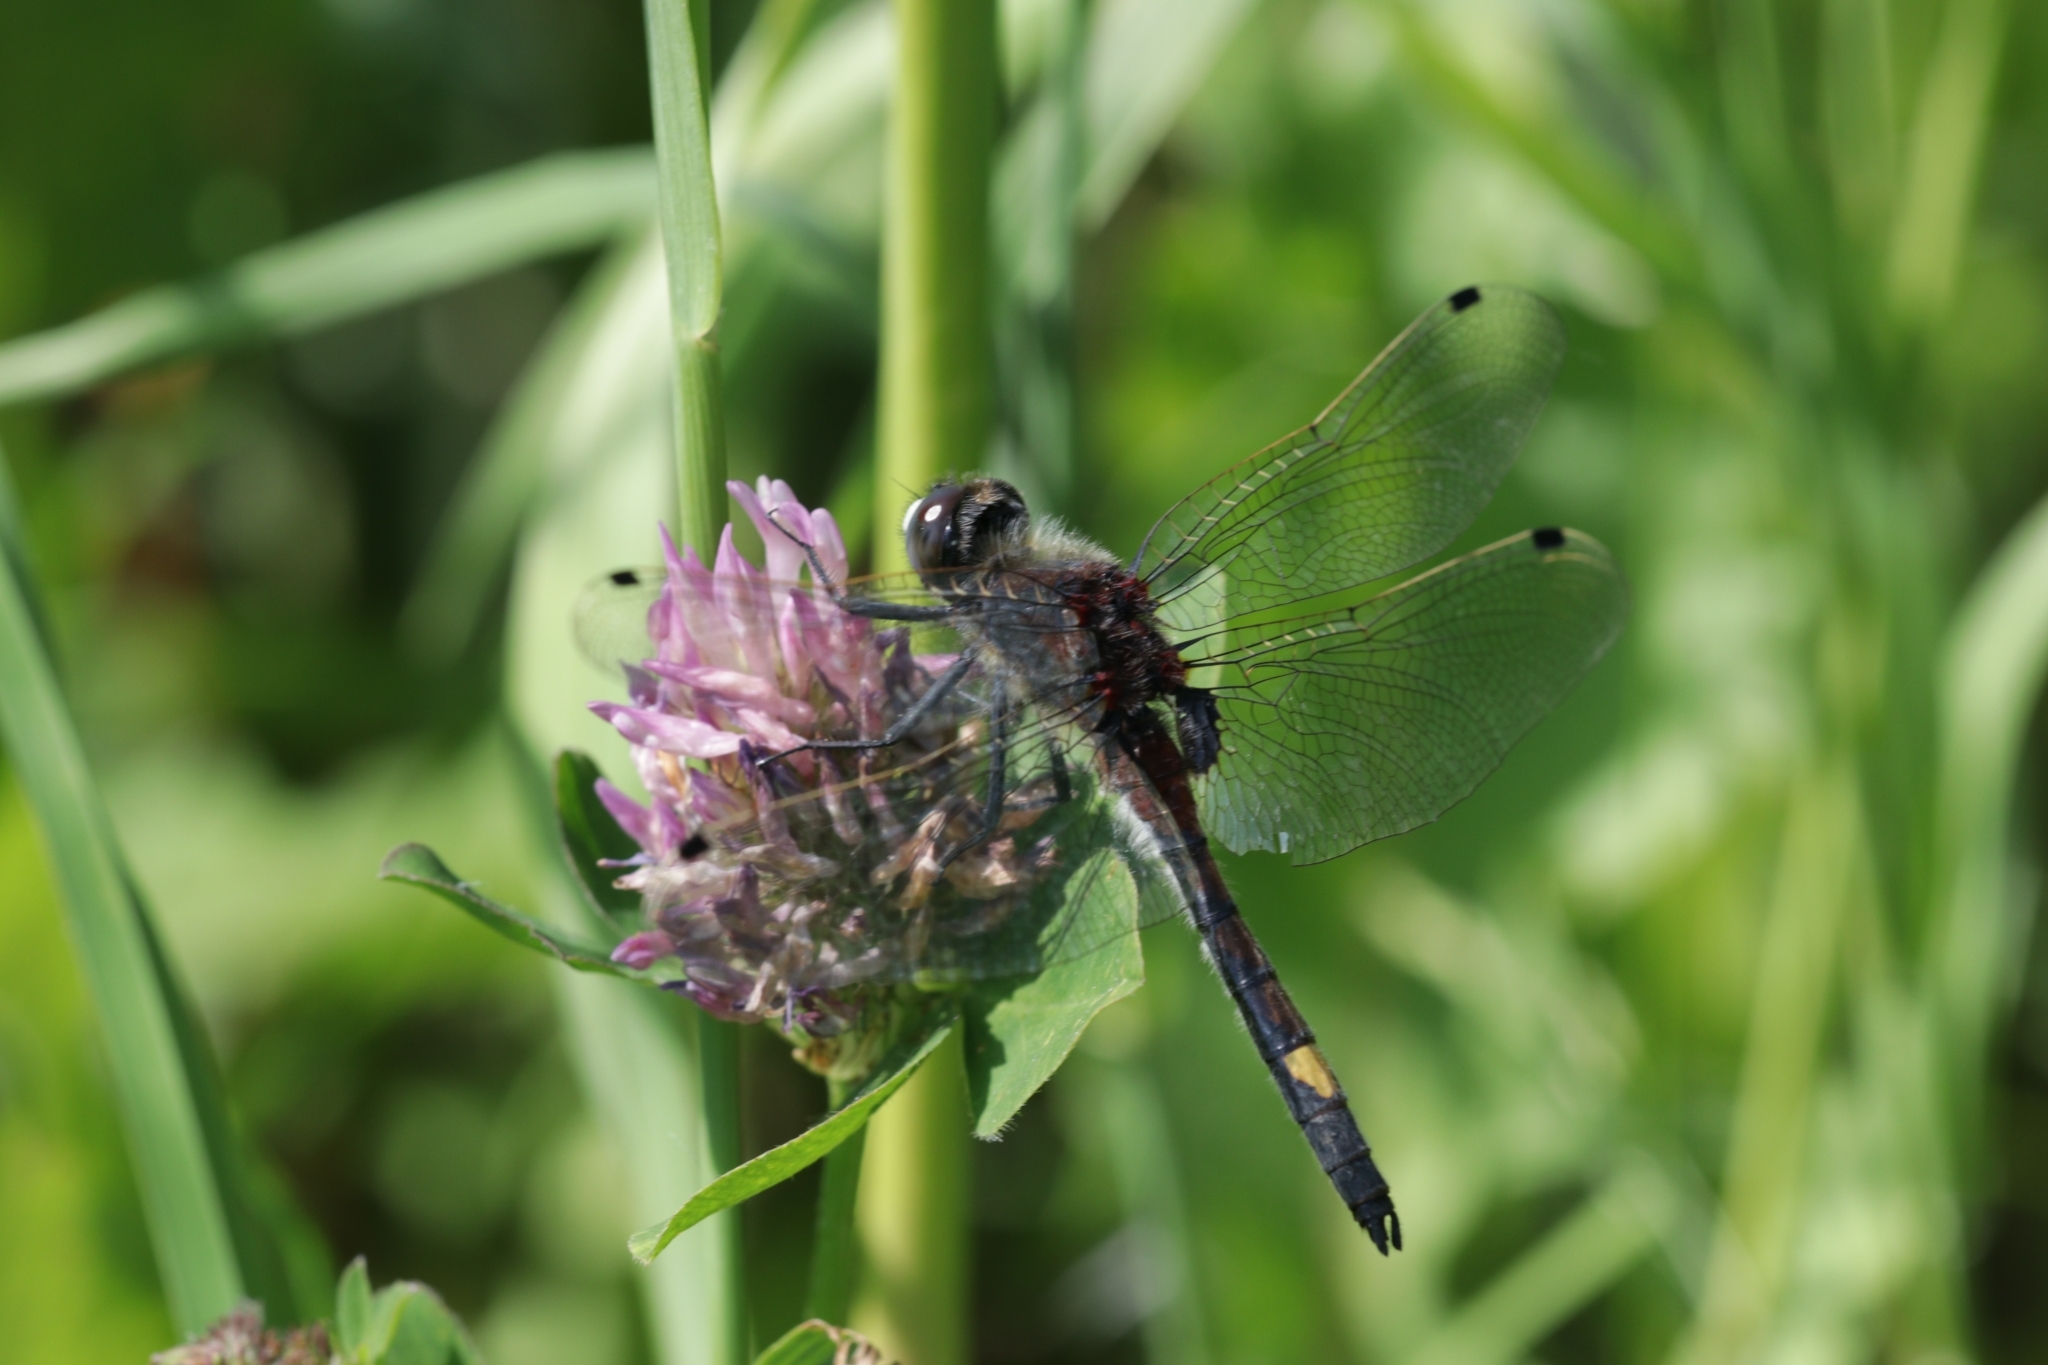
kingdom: Animalia
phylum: Arthropoda
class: Insecta
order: Odonata
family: Libellulidae
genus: Leucorrhinia
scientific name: Leucorrhinia pectoralis
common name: Yellow-spotted whiteface
